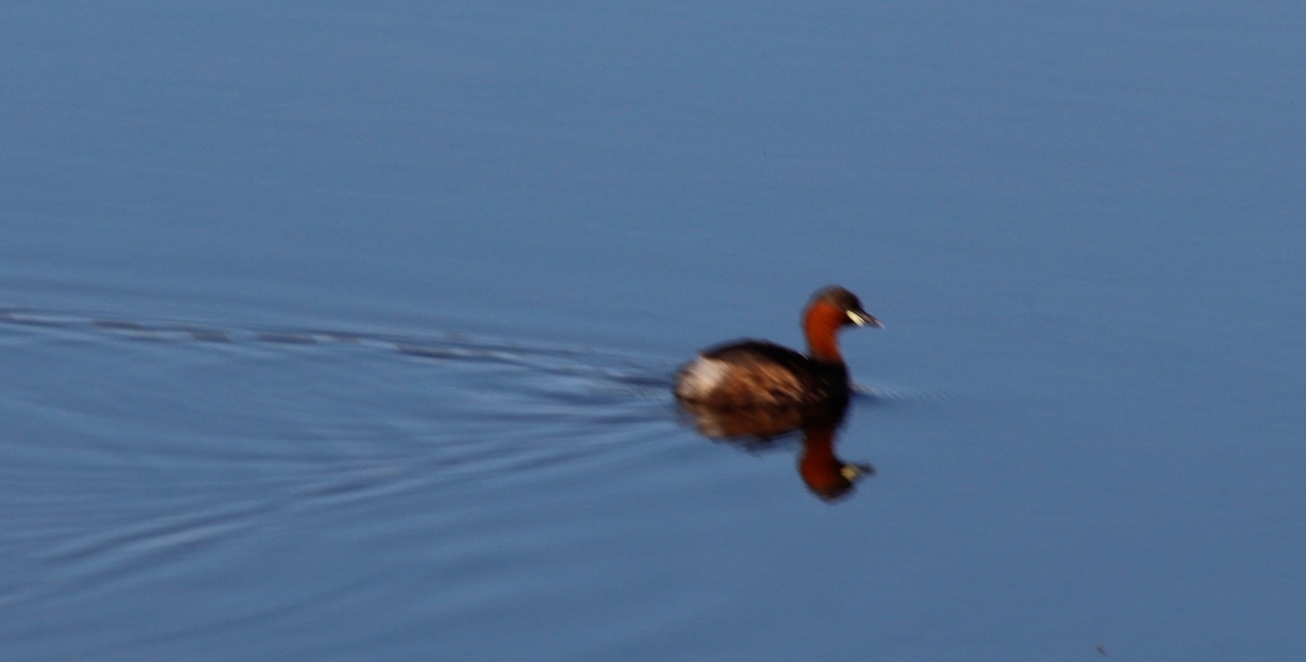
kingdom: Animalia
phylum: Chordata
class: Aves
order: Podicipediformes
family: Podicipedidae
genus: Tachybaptus
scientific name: Tachybaptus ruficollis
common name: Little grebe
